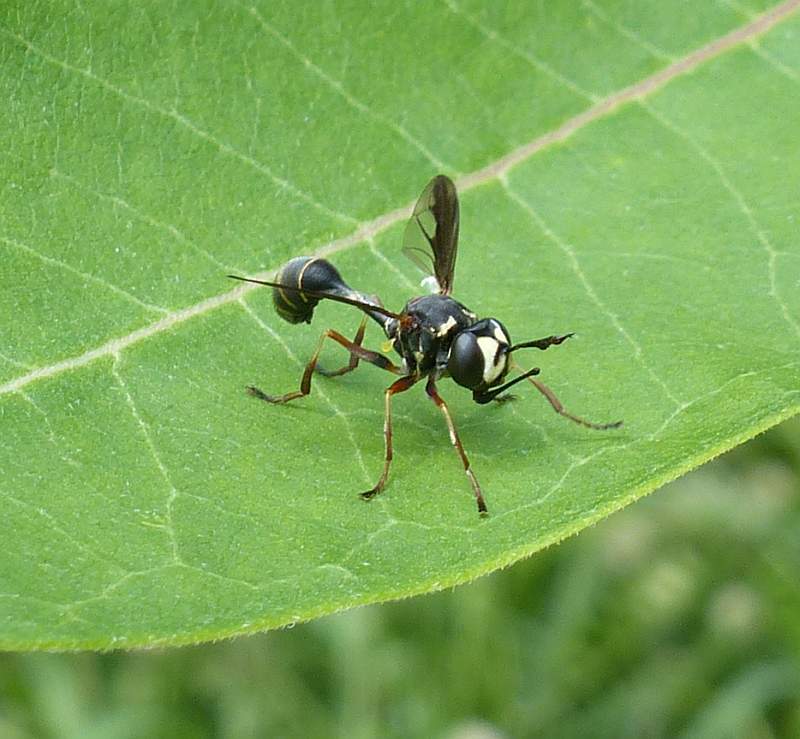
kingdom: Animalia
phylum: Arthropoda
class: Insecta
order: Diptera
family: Conopidae
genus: Physocephala
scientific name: Physocephala marginata
